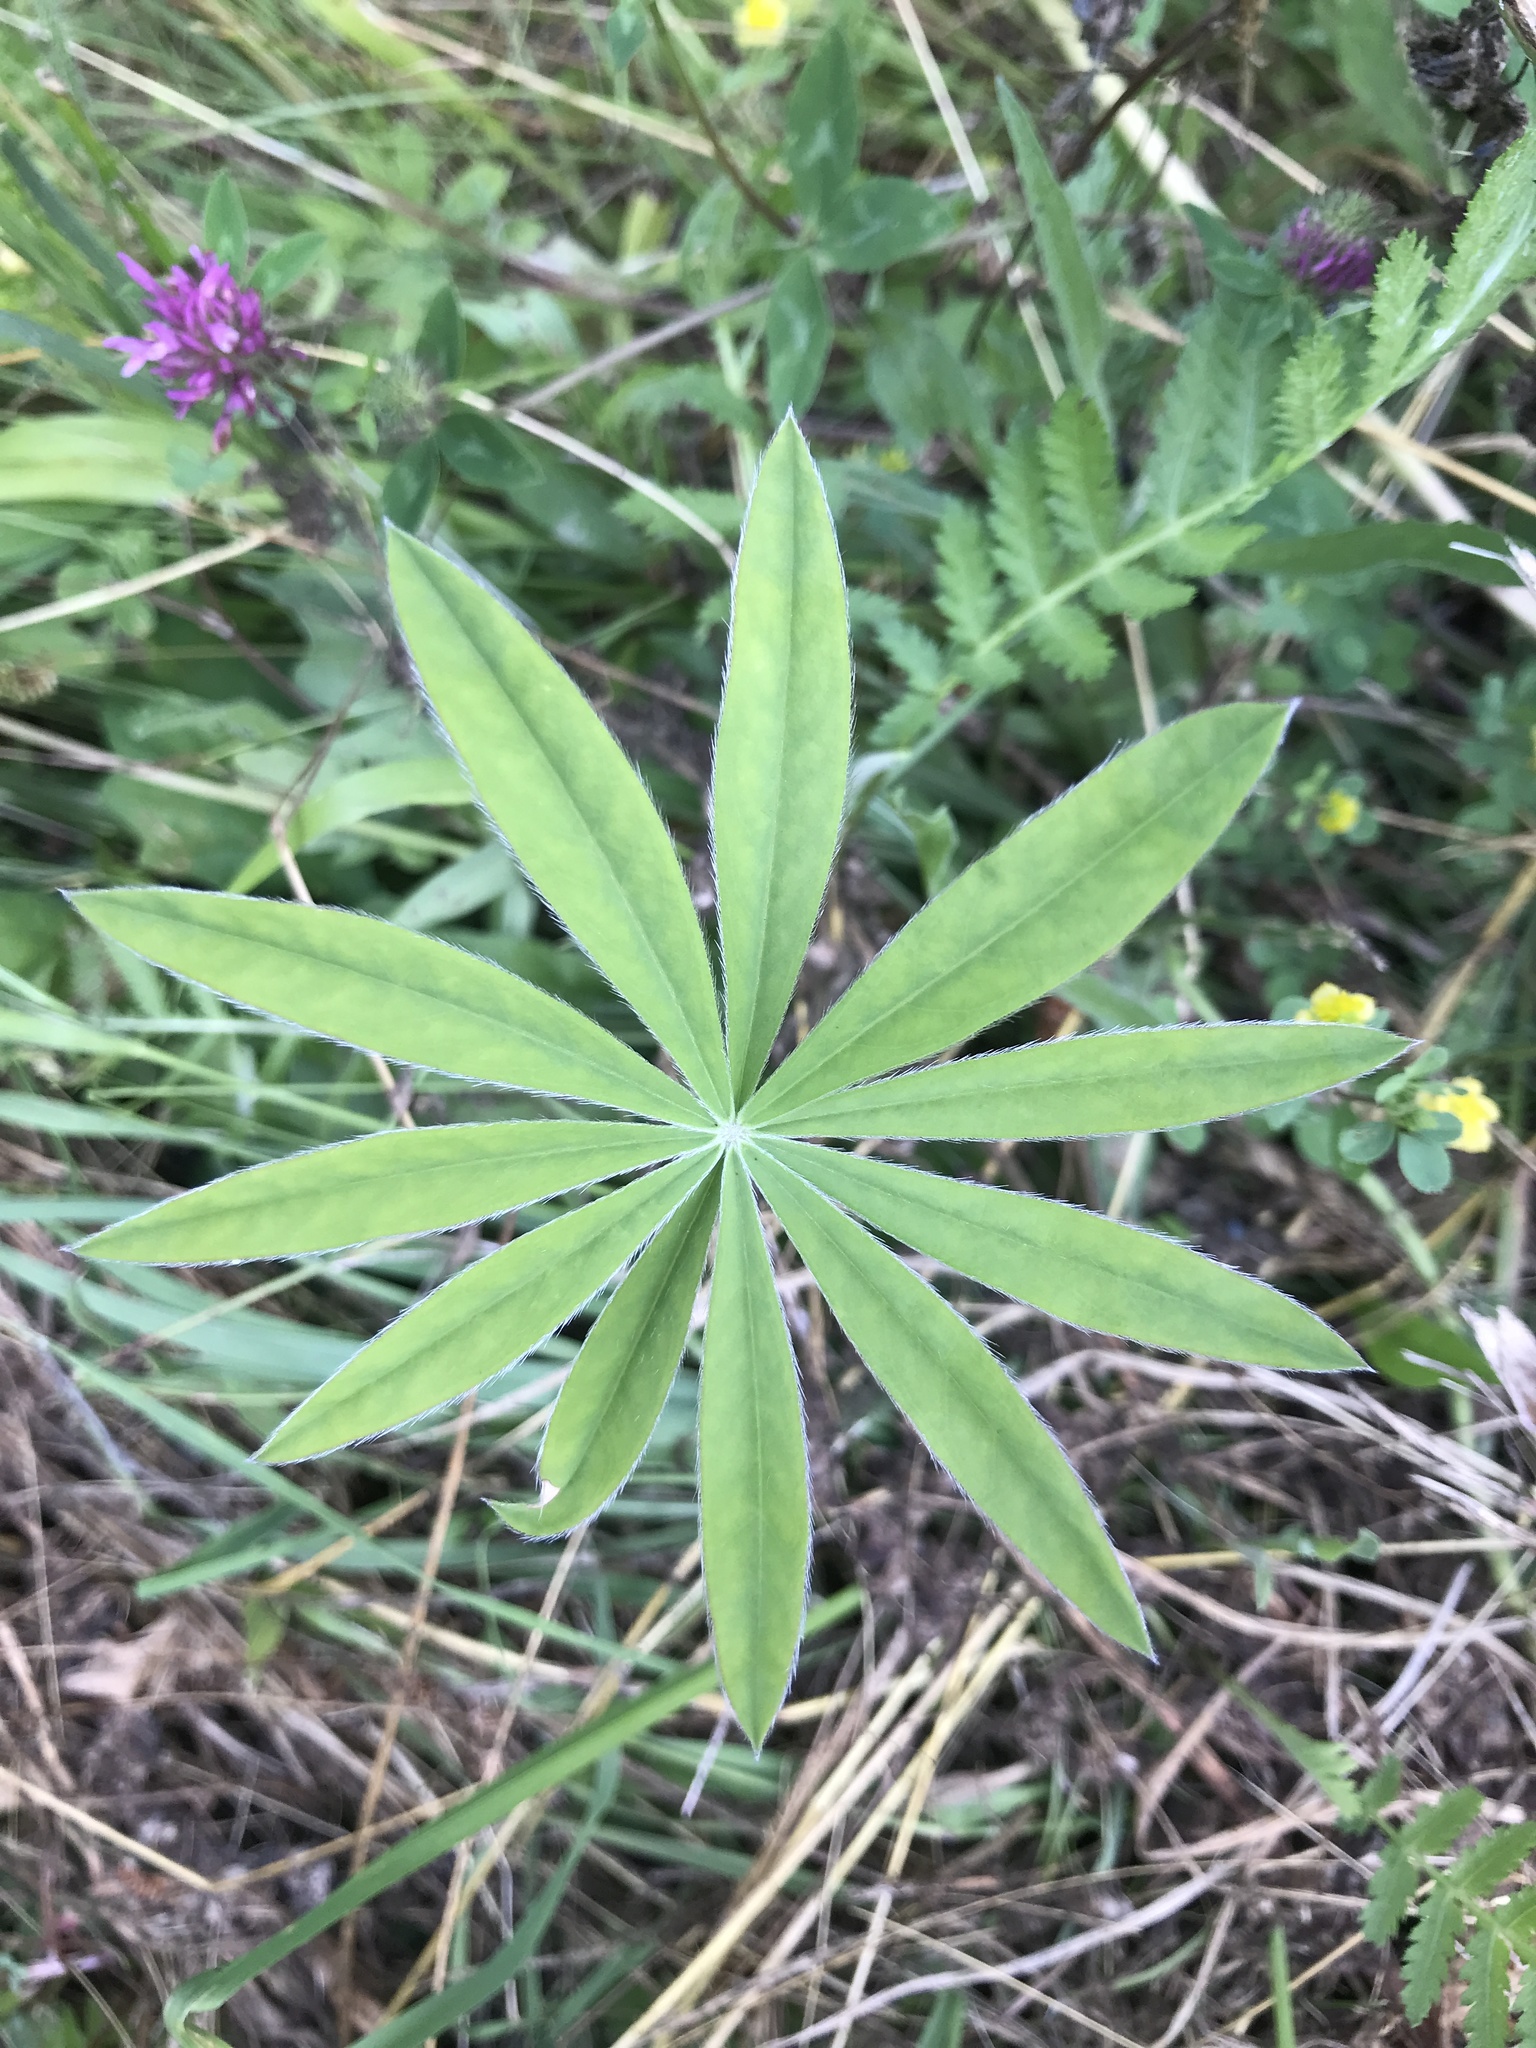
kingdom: Plantae
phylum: Tracheophyta
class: Magnoliopsida
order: Fabales
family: Fabaceae
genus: Lupinus
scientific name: Lupinus polyphyllus
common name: Garden lupin
